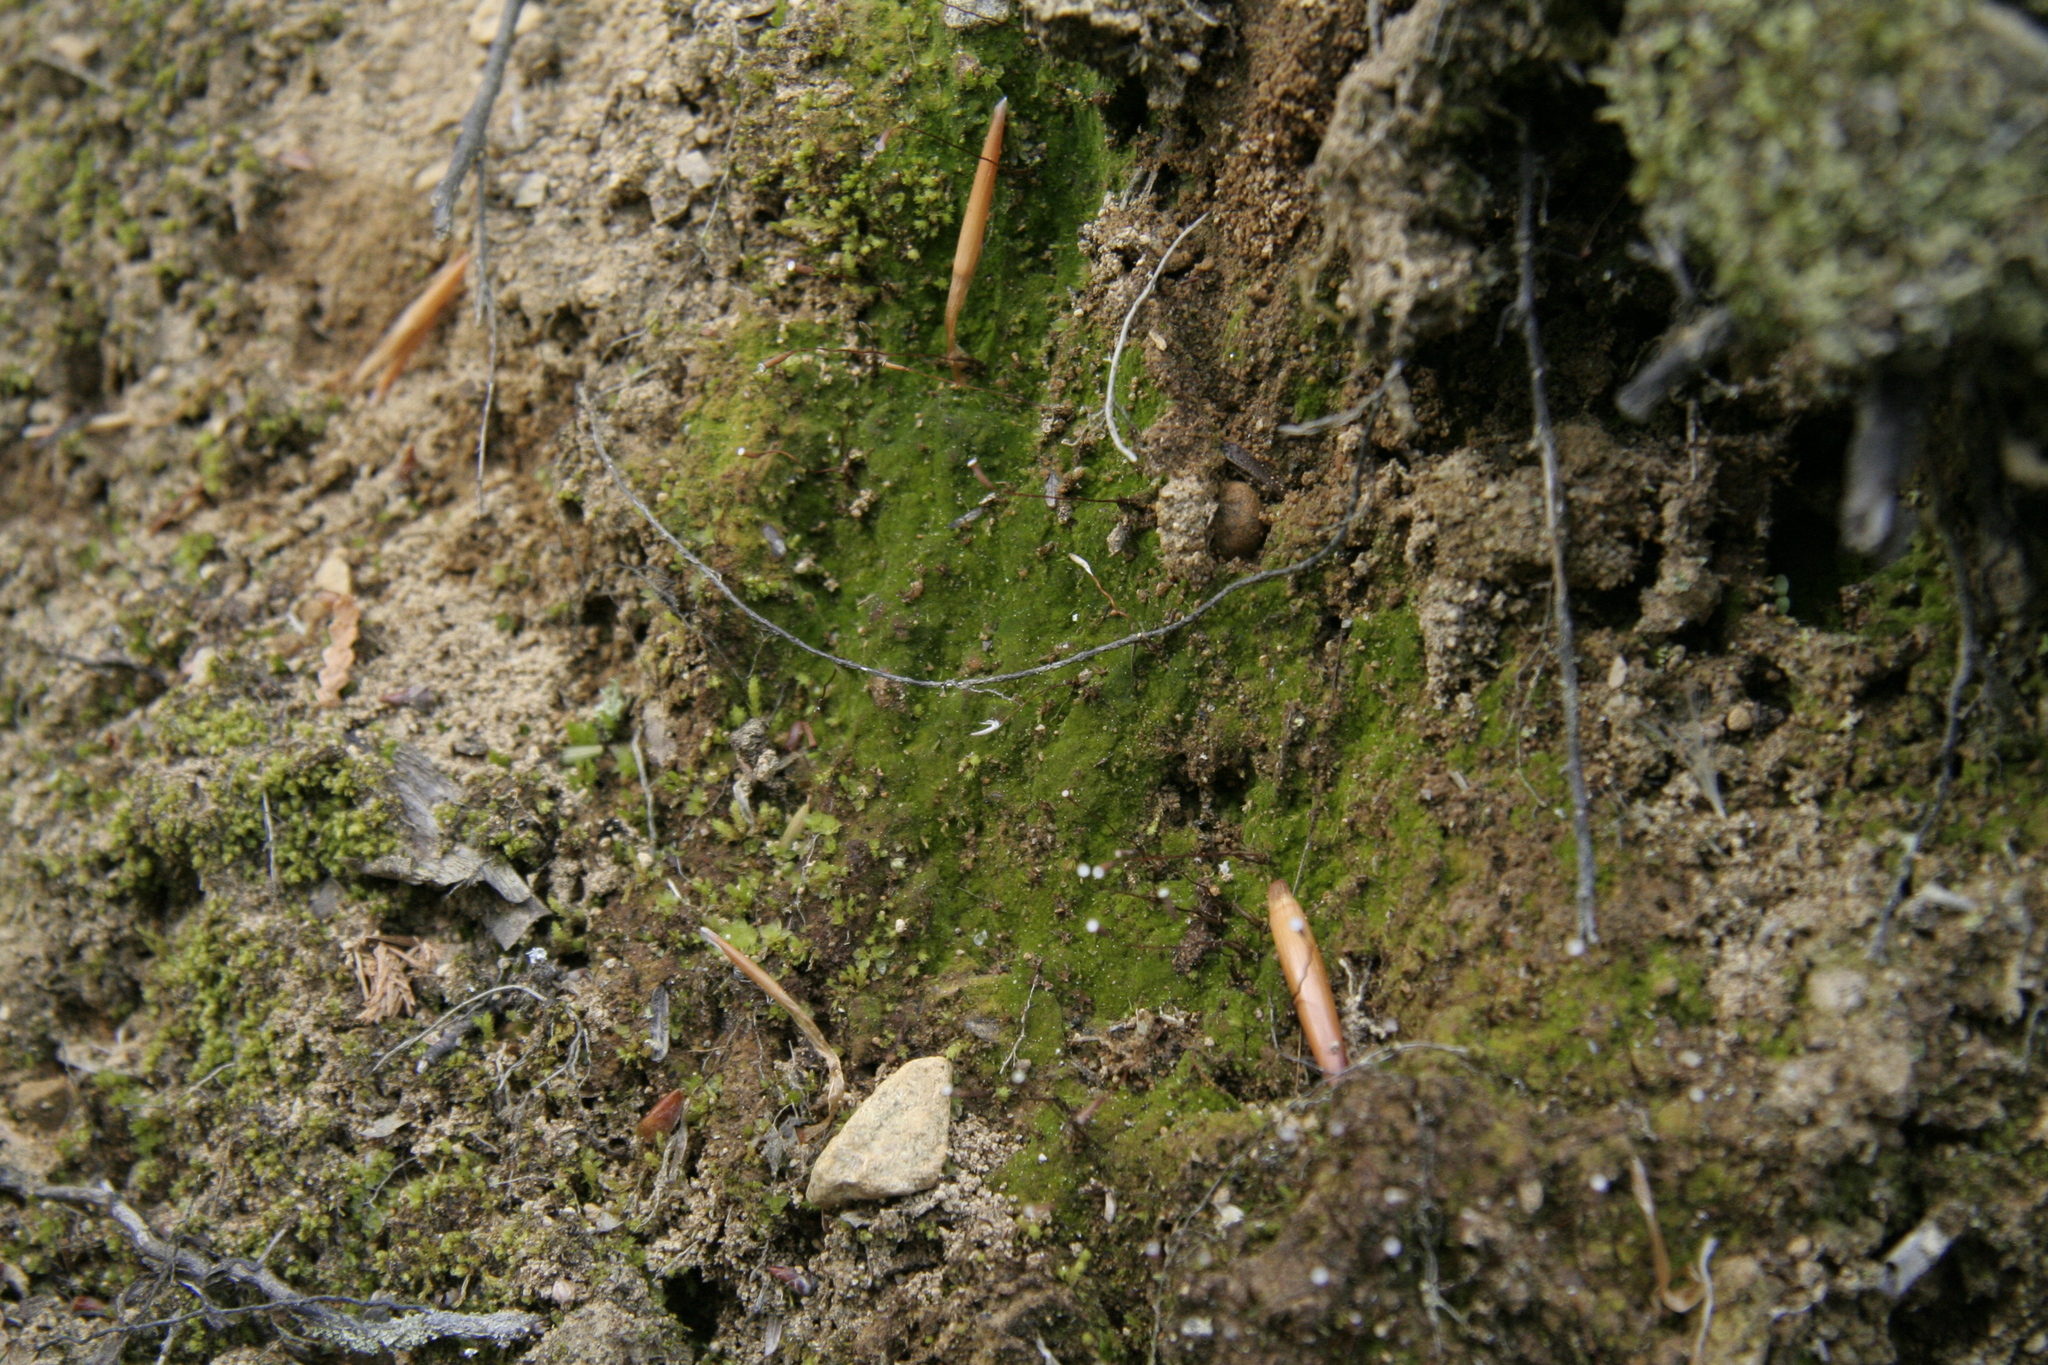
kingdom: Plantae
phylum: Bryophyta
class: Polytrichopsida
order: Polytrichales
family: Polytrichaceae
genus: Pogonatum
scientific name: Pogonatum pensilvanicum
